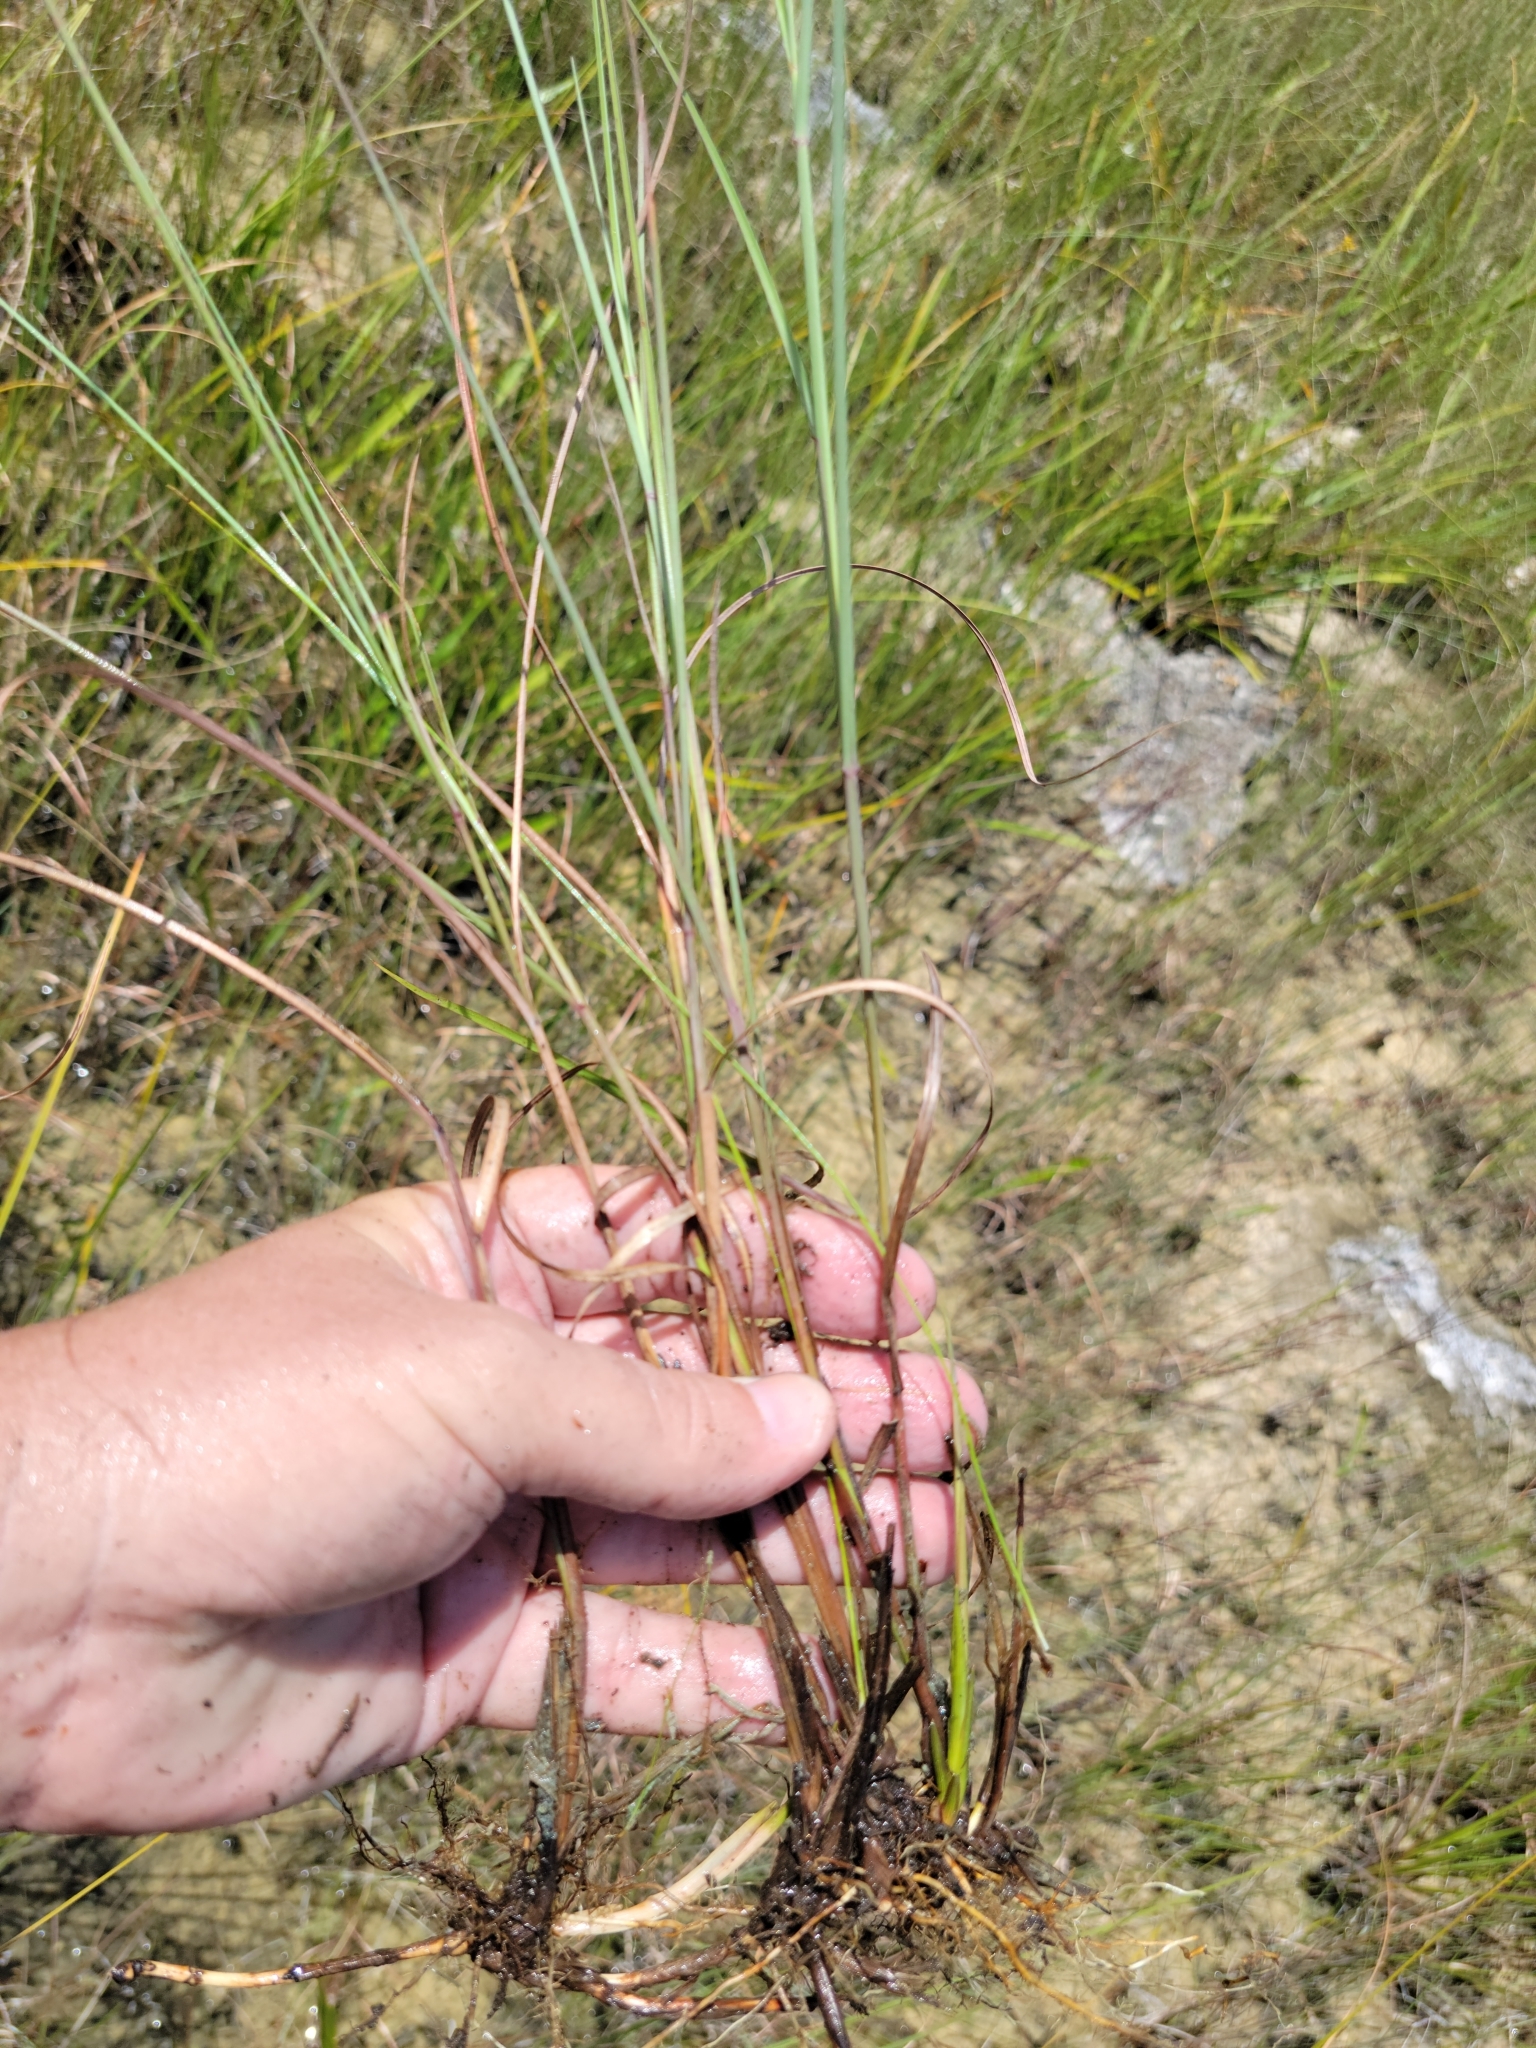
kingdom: Plantae
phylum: Tracheophyta
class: Liliopsida
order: Poales
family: Poaceae
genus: Schizachyrium
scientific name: Schizachyrium rhizomatum
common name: Florida little bluestem
